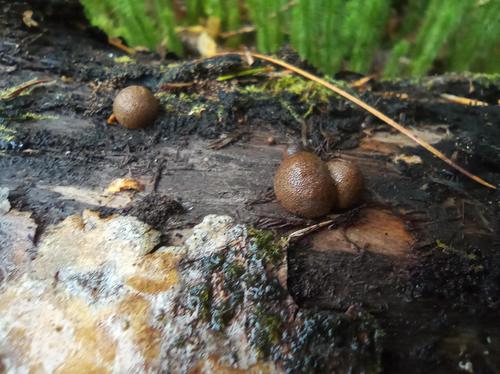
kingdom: Protozoa
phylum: Mycetozoa
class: Myxomycetes
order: Cribrariales
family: Tubiferaceae
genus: Lycogala
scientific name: Lycogala epidendrum
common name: Wolf's milk
